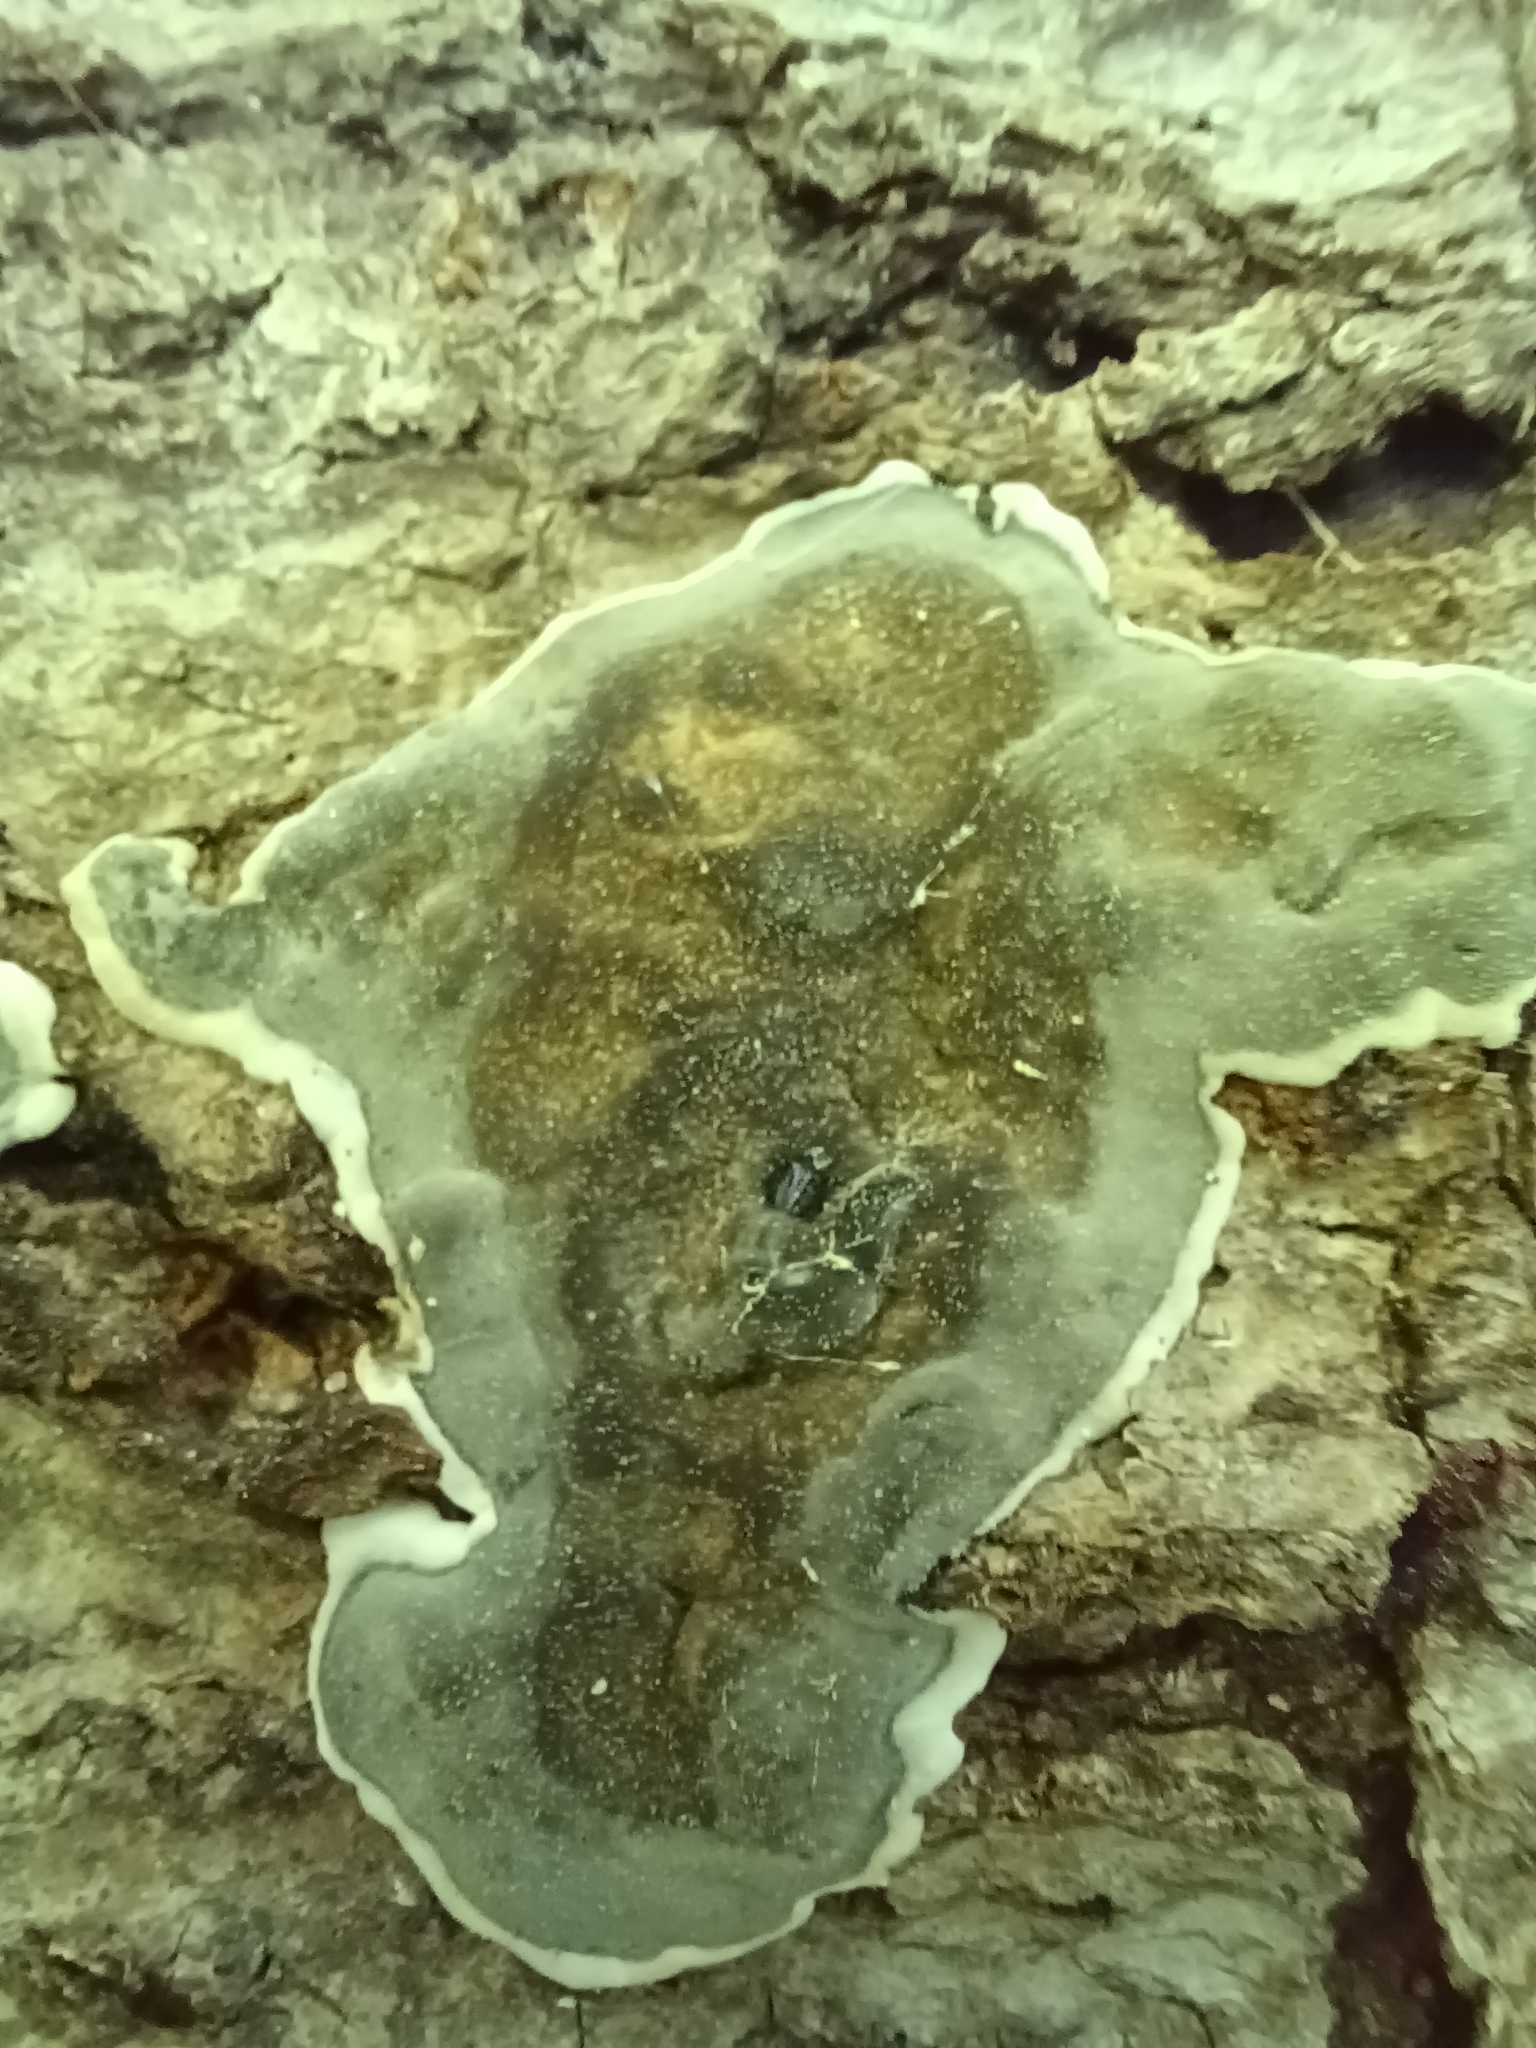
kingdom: Fungi
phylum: Ascomycota
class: Sordariomycetes
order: Xylariales
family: Xylariaceae
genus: Kretzschmaria
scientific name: Kretzschmaria deusta
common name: Brittle cinder
